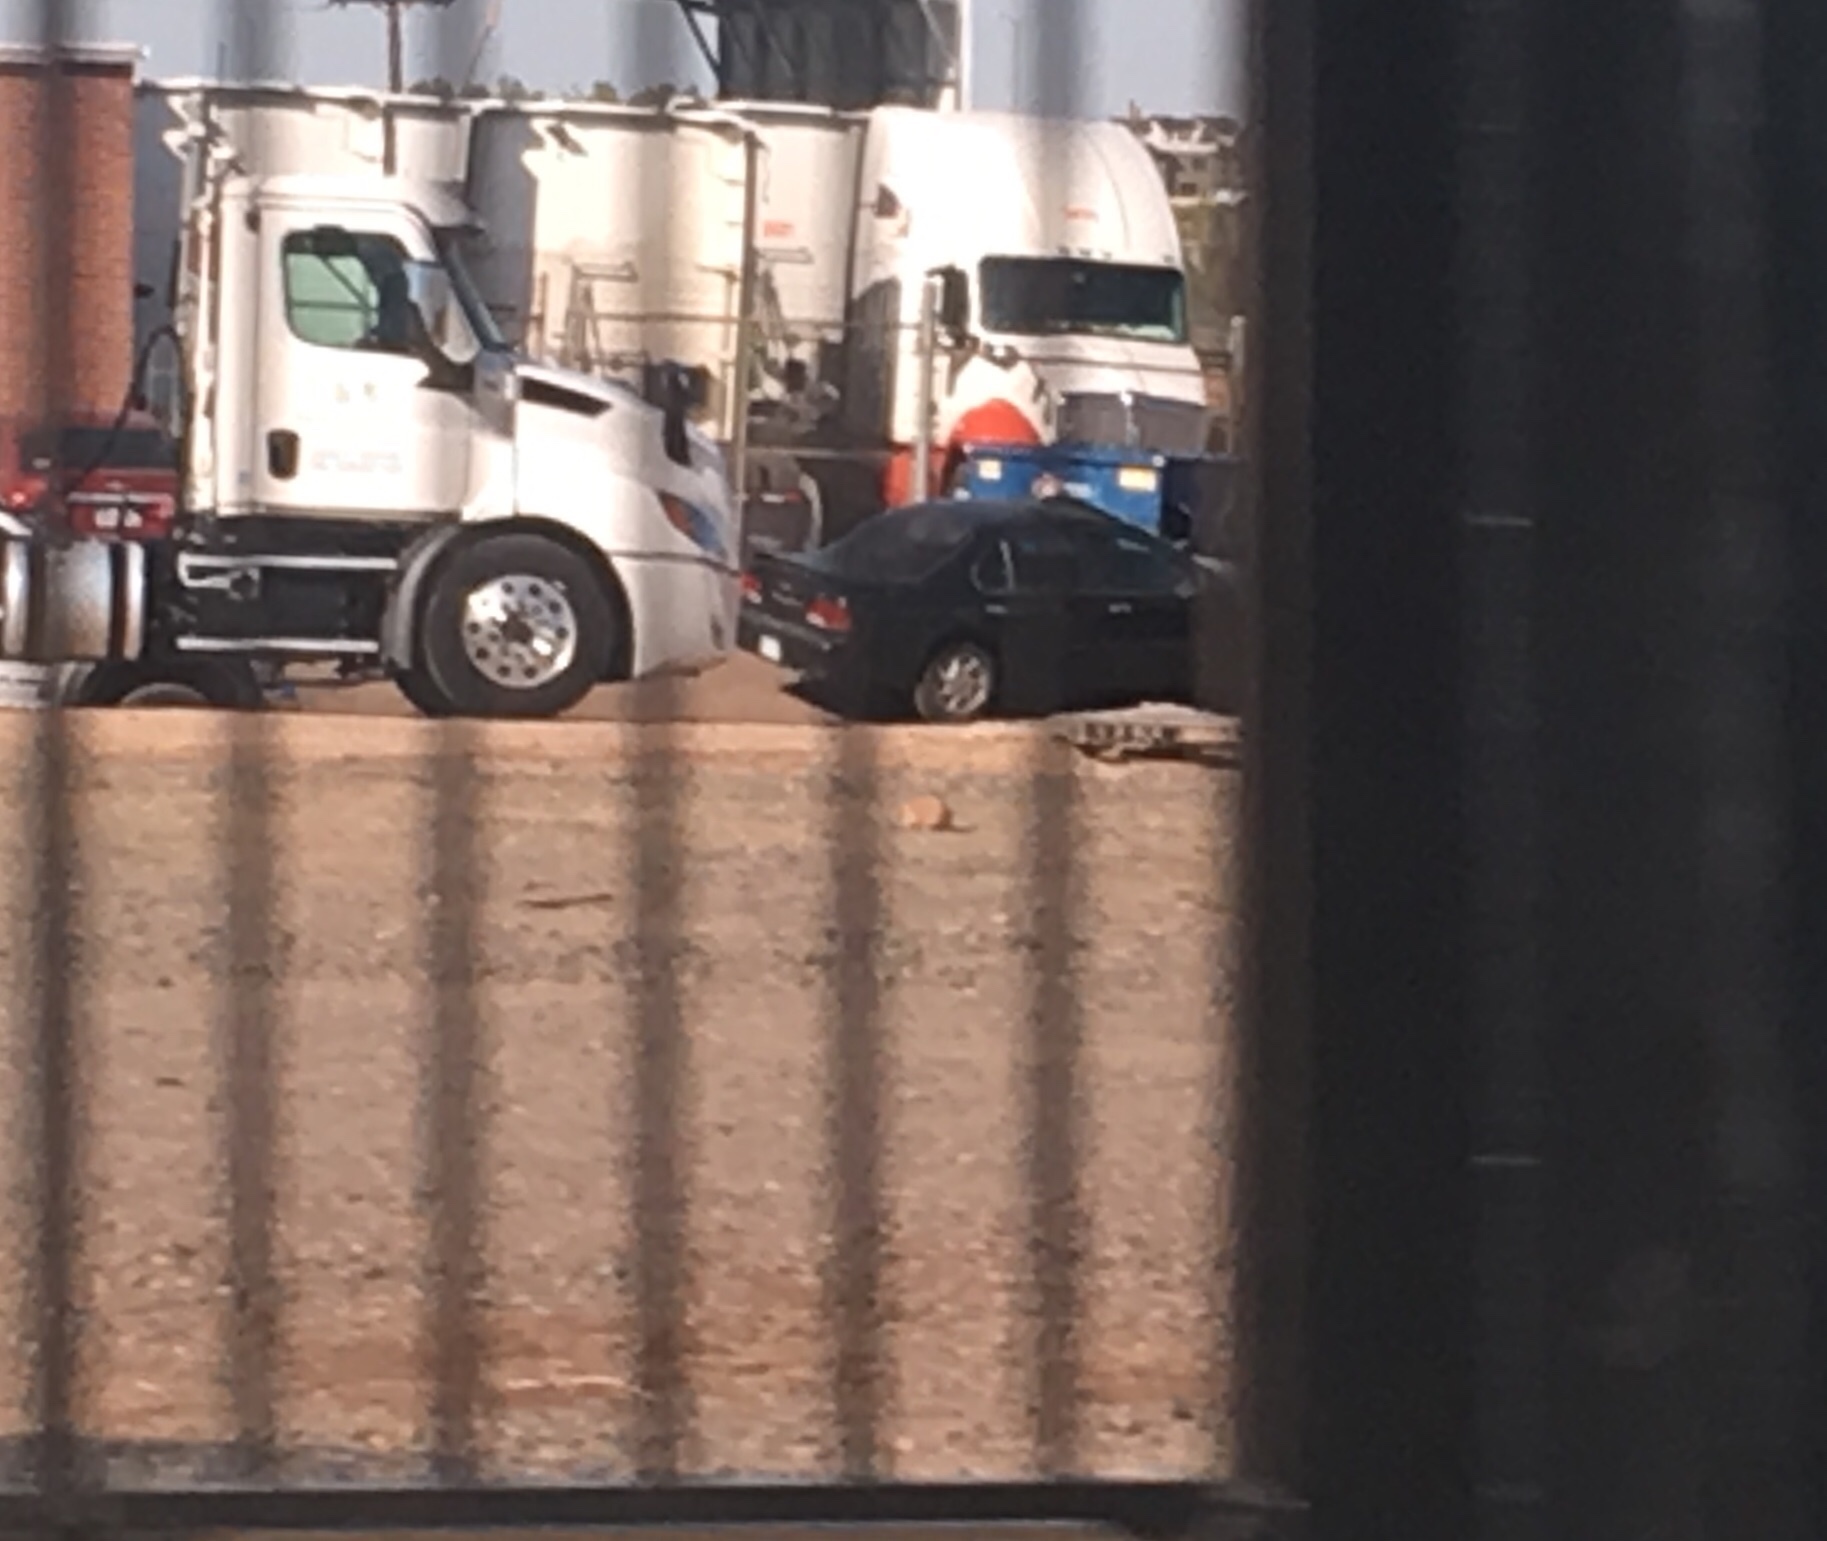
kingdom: Animalia
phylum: Chordata
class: Mammalia
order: Rodentia
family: Sciuridae
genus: Cynomys
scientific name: Cynomys ludovicianus
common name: Black-tailed prairie dog
